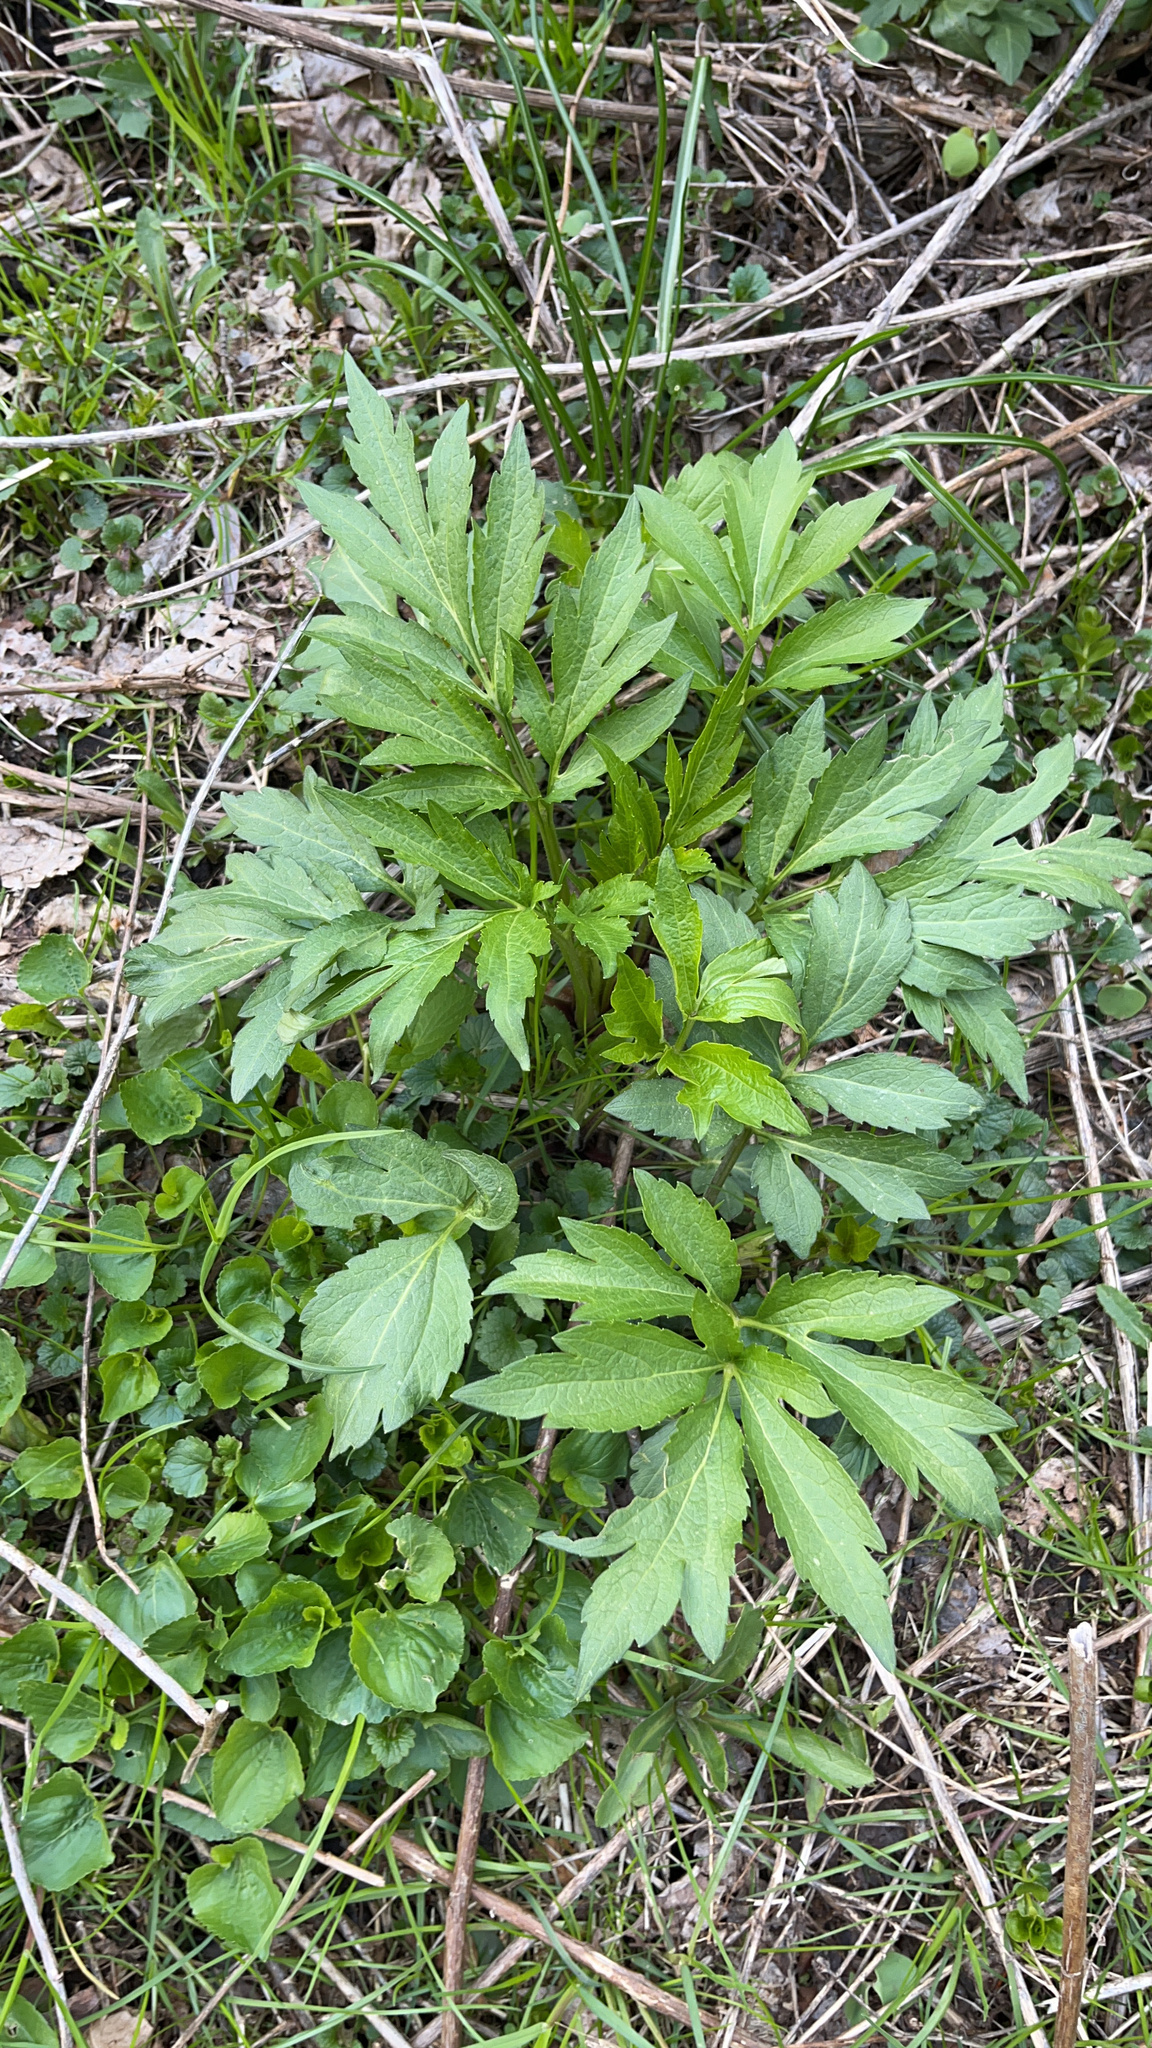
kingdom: Plantae
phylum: Tracheophyta
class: Magnoliopsida
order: Asterales
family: Asteraceae
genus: Rudbeckia
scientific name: Rudbeckia laciniata
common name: Coneflower
